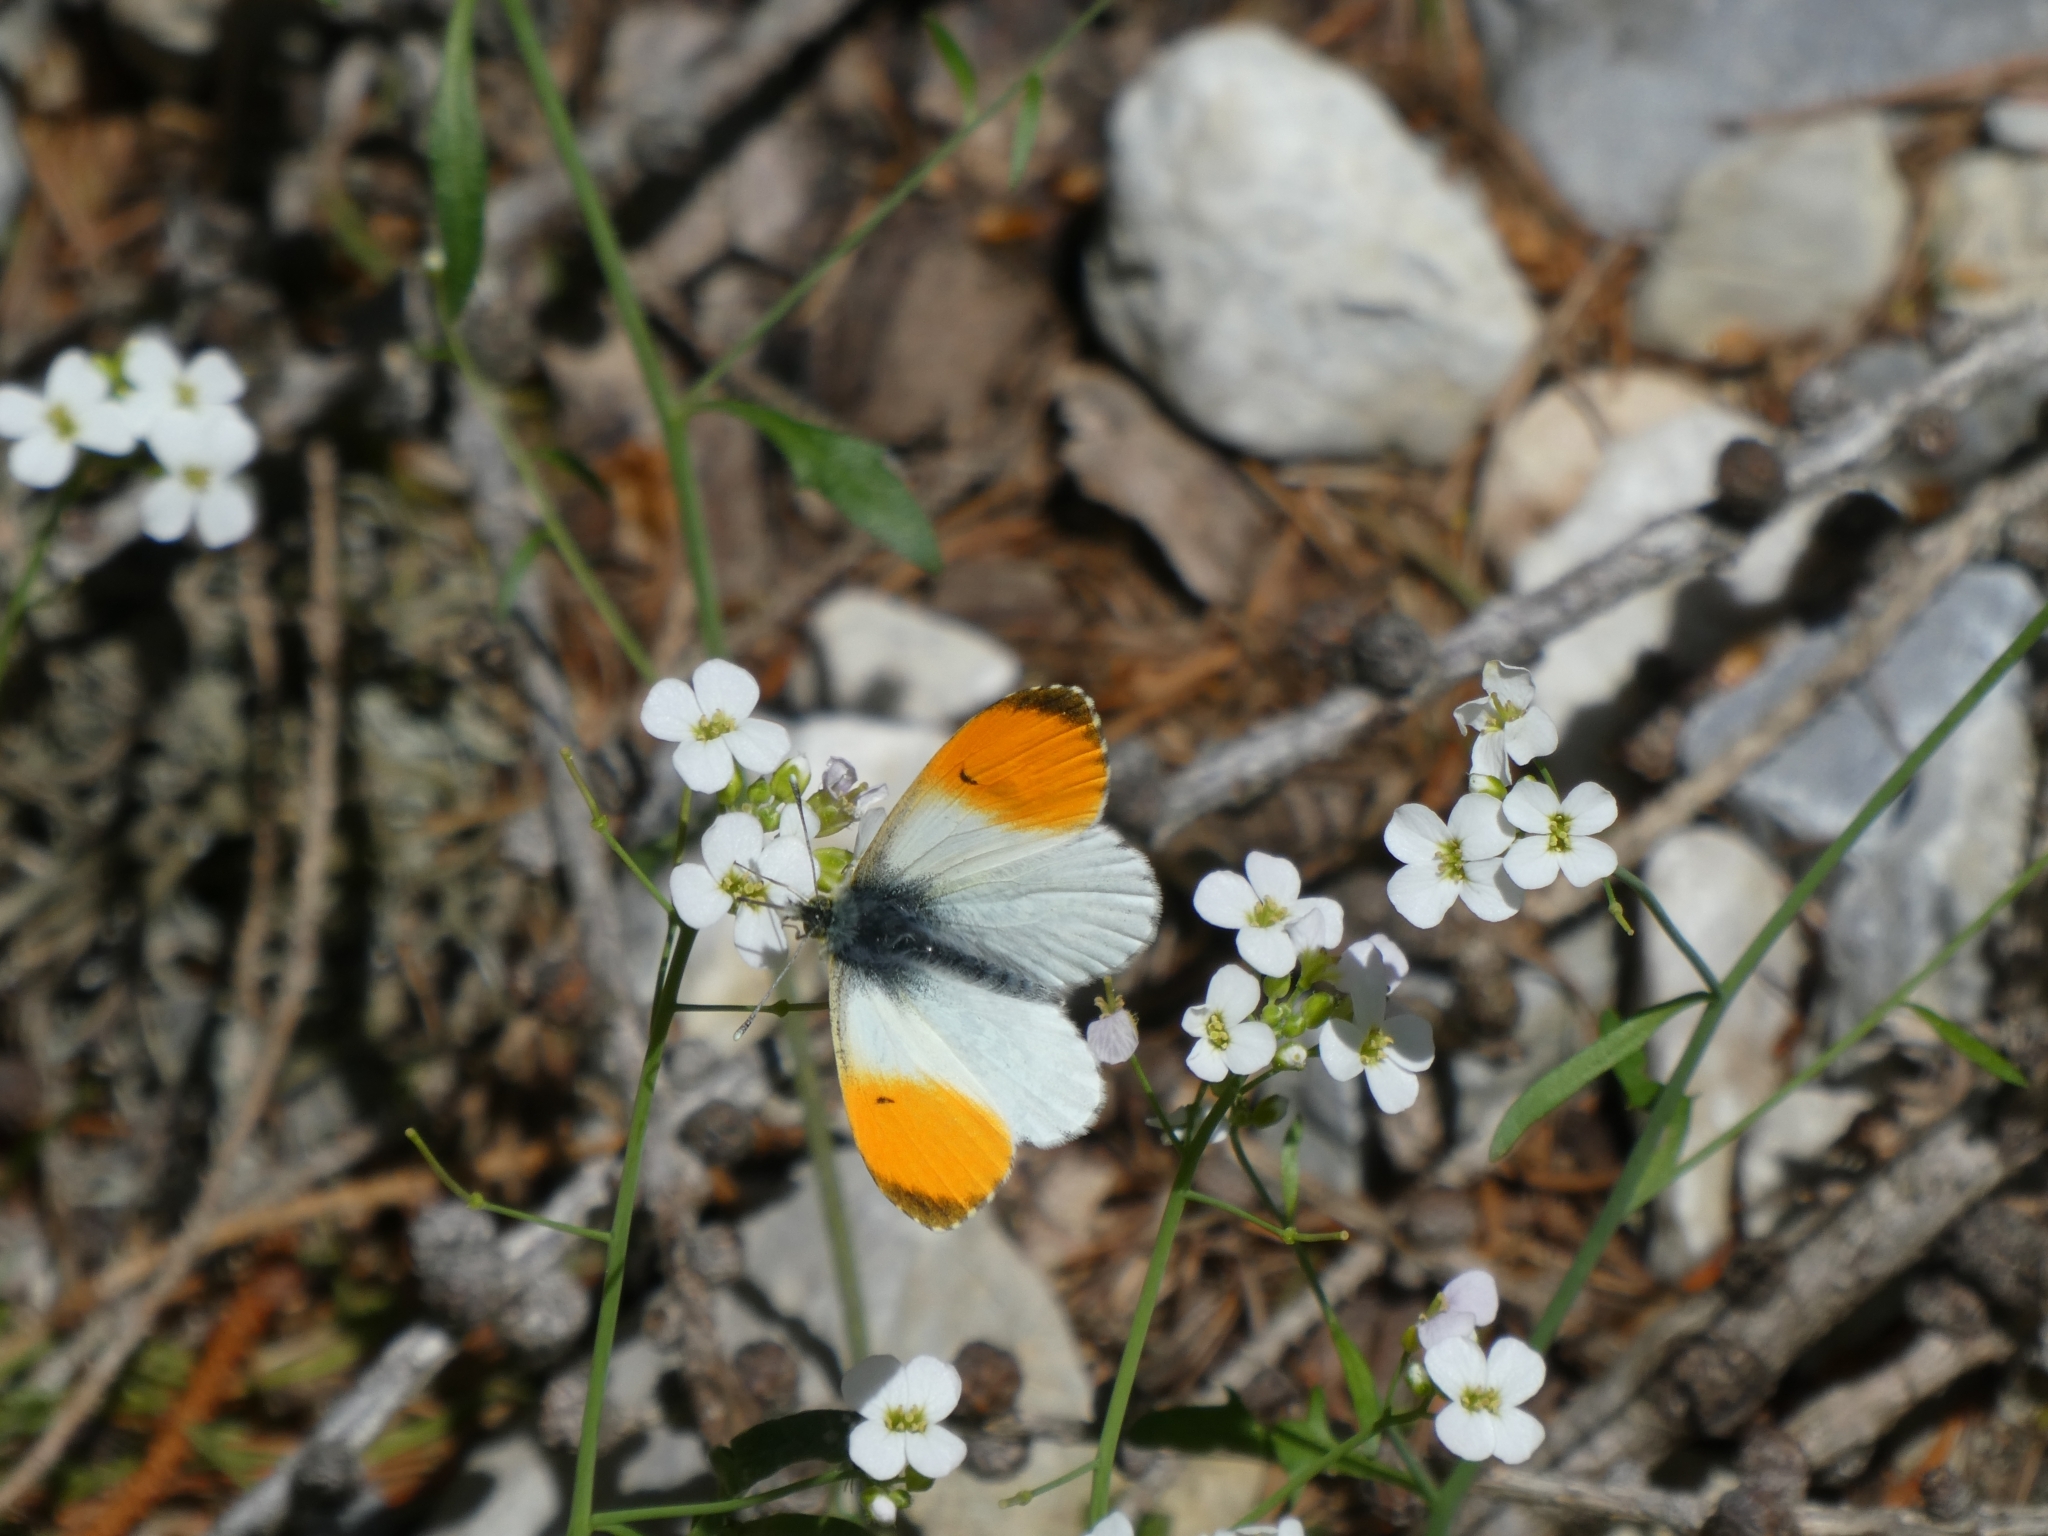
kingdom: Animalia
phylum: Arthropoda
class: Insecta
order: Lepidoptera
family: Pieridae
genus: Anthocharis
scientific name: Anthocharis cardamines
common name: Orange-tip
